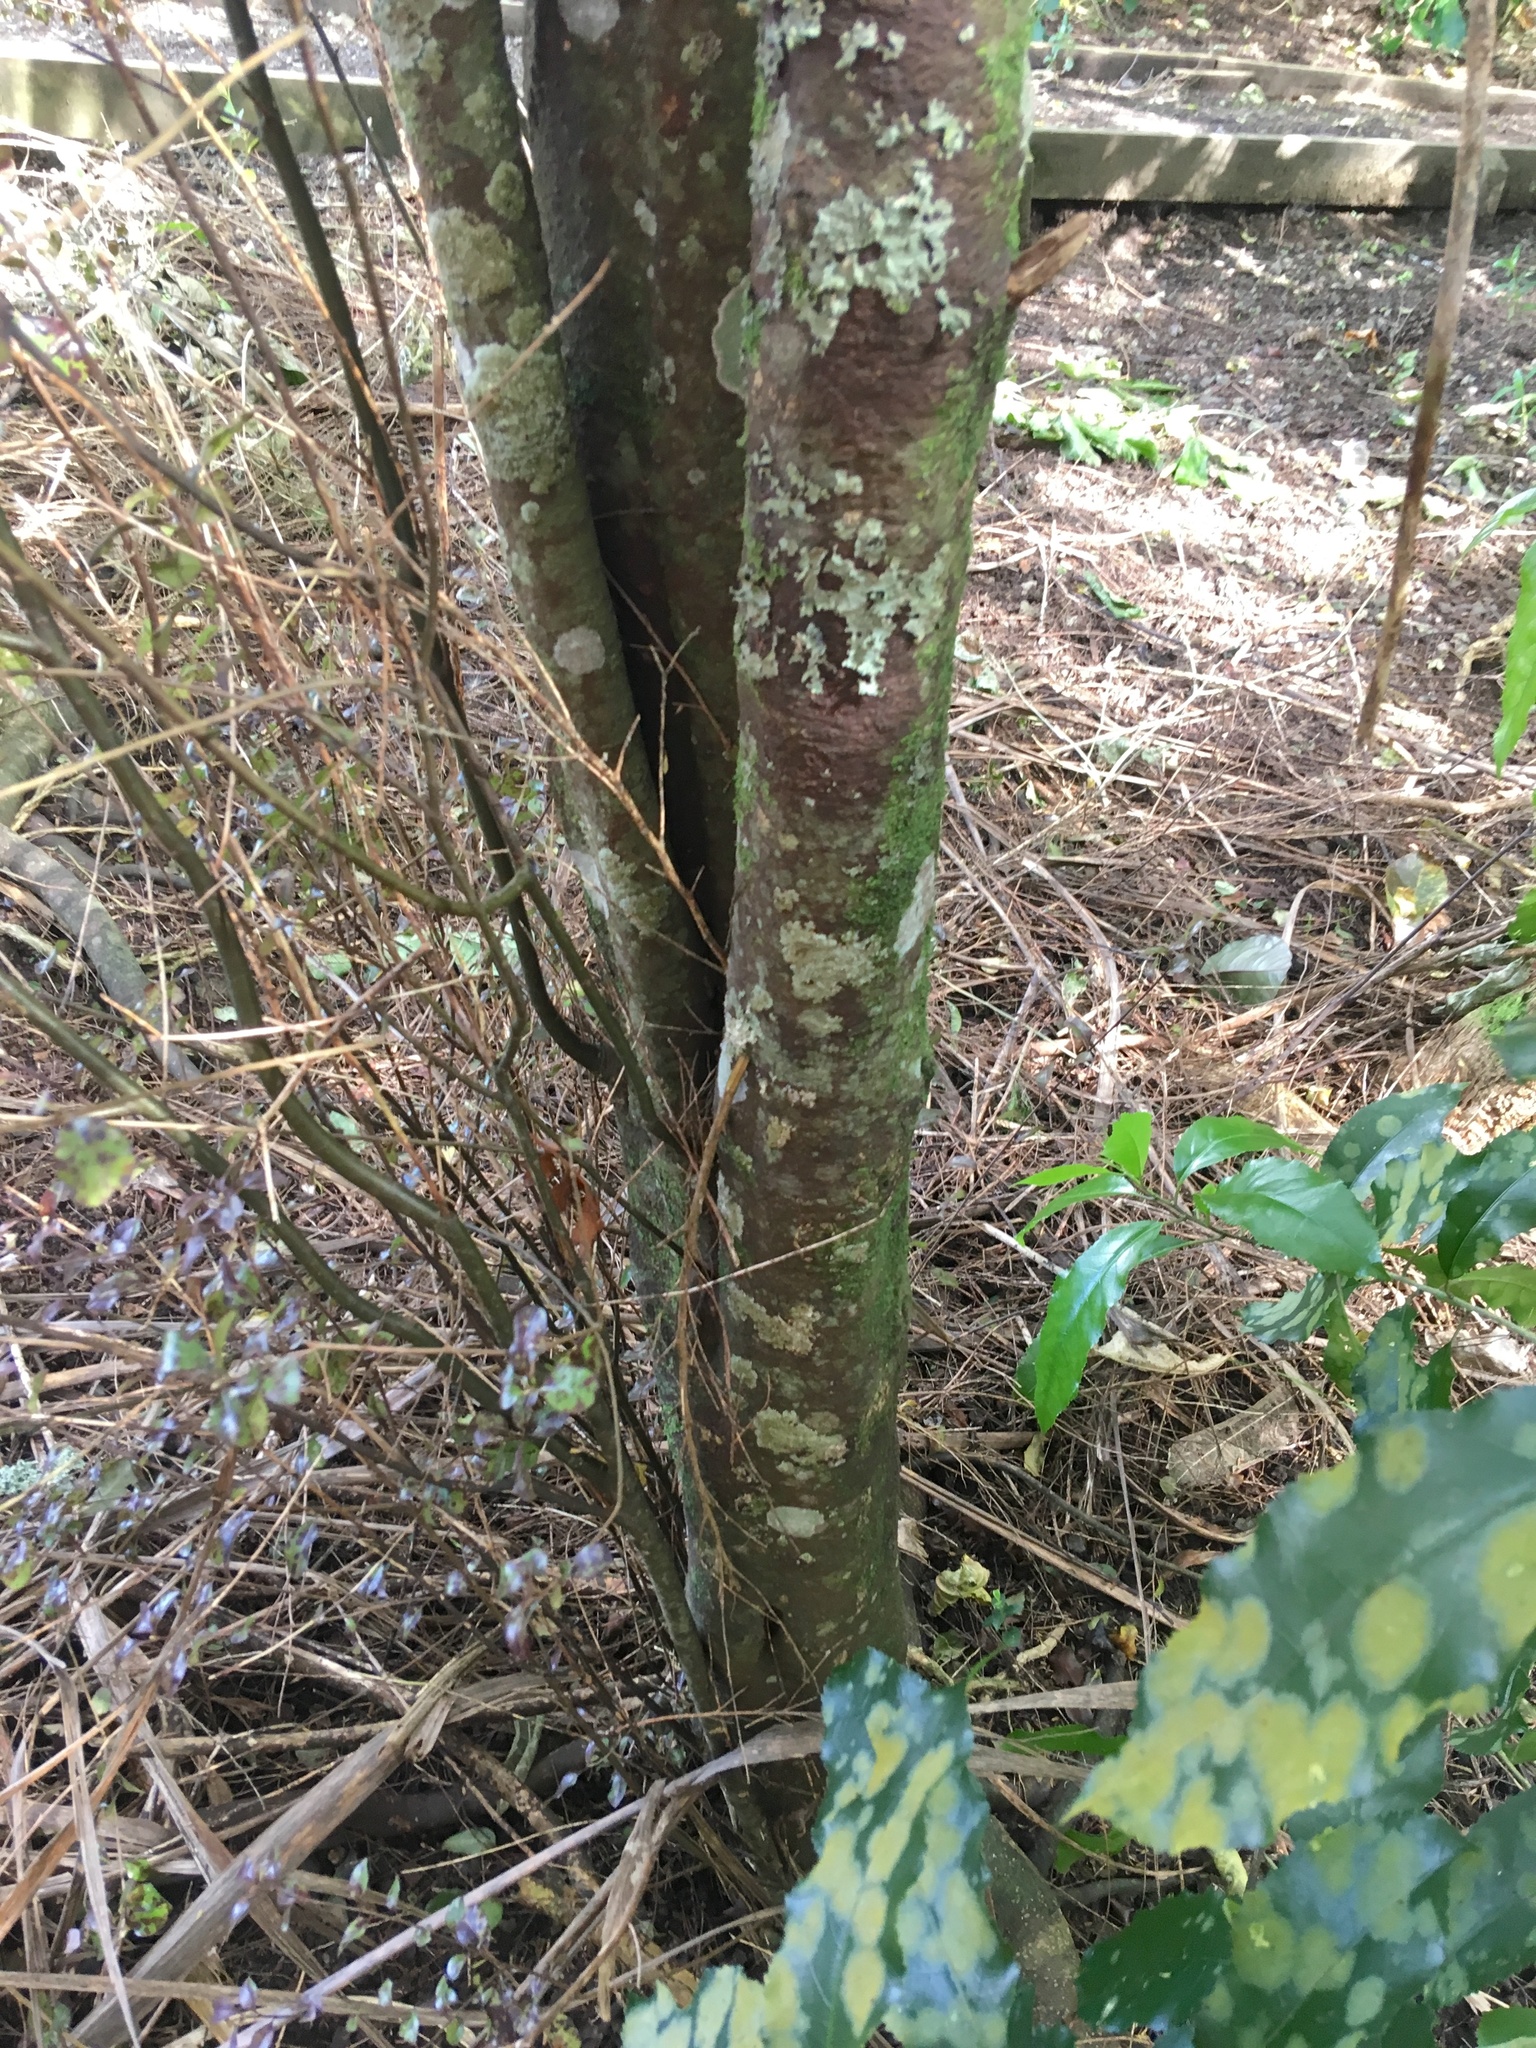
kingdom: Plantae
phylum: Tracheophyta
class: Magnoliopsida
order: Apiales
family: Pittosporaceae
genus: Pittosporum
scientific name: Pittosporum tenuifolium
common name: Kohuhu
